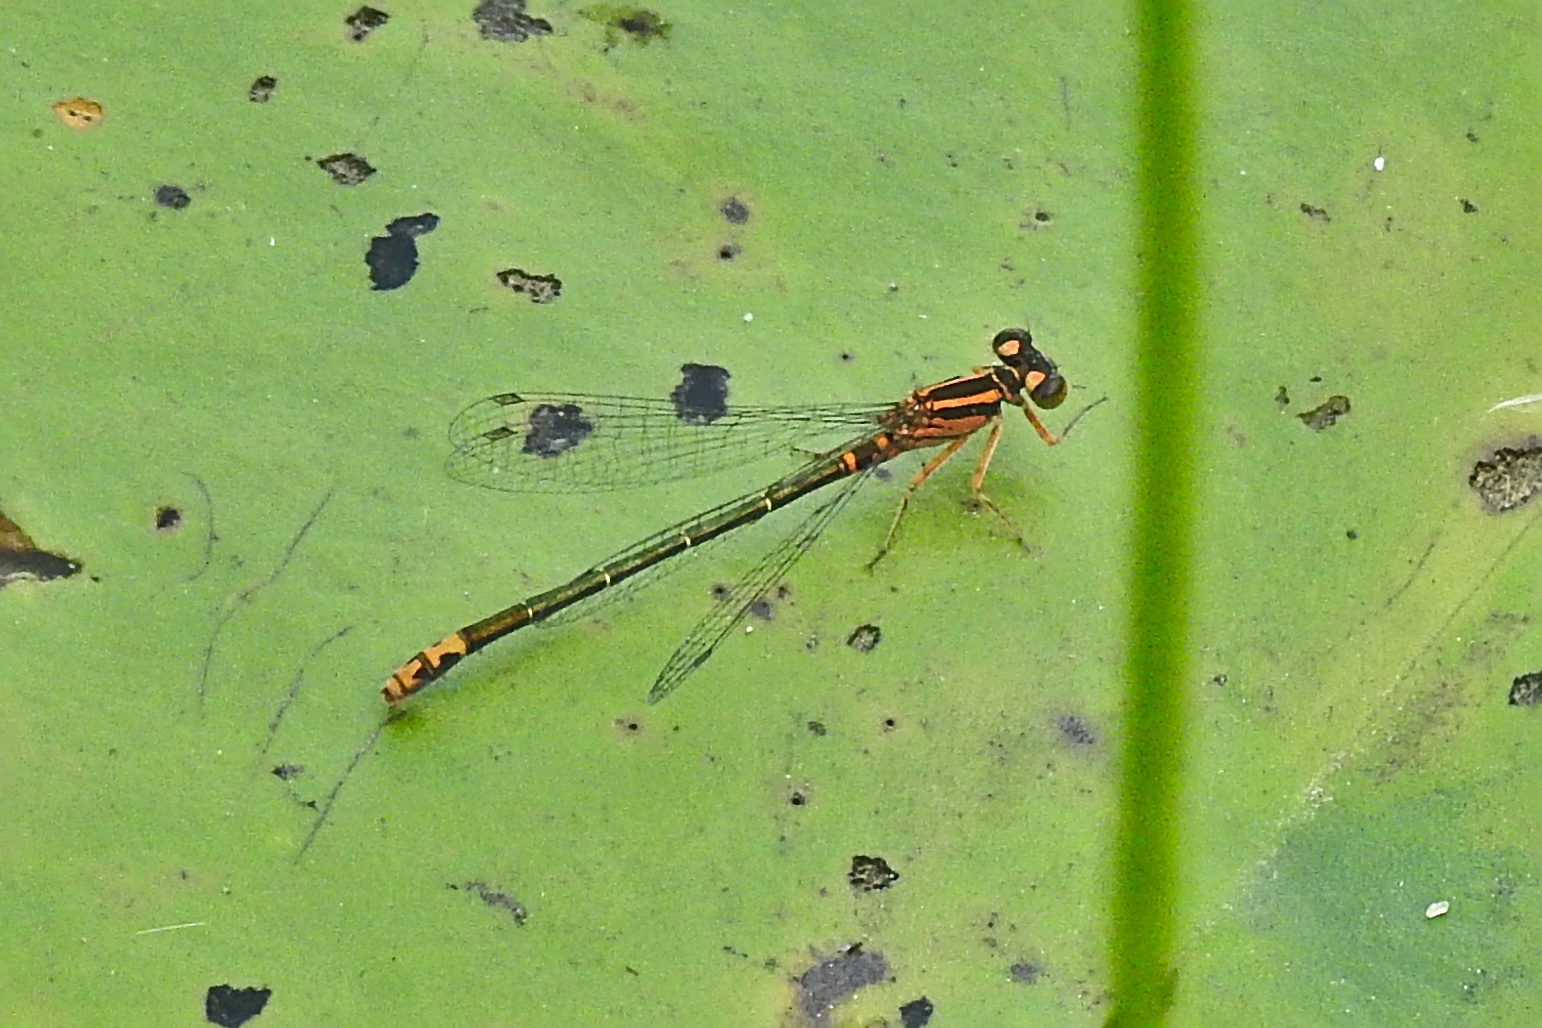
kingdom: Animalia
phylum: Arthropoda
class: Insecta
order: Odonata
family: Coenagrionidae
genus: Ischnura
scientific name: Ischnura kellicotti
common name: Lilypad forktail
